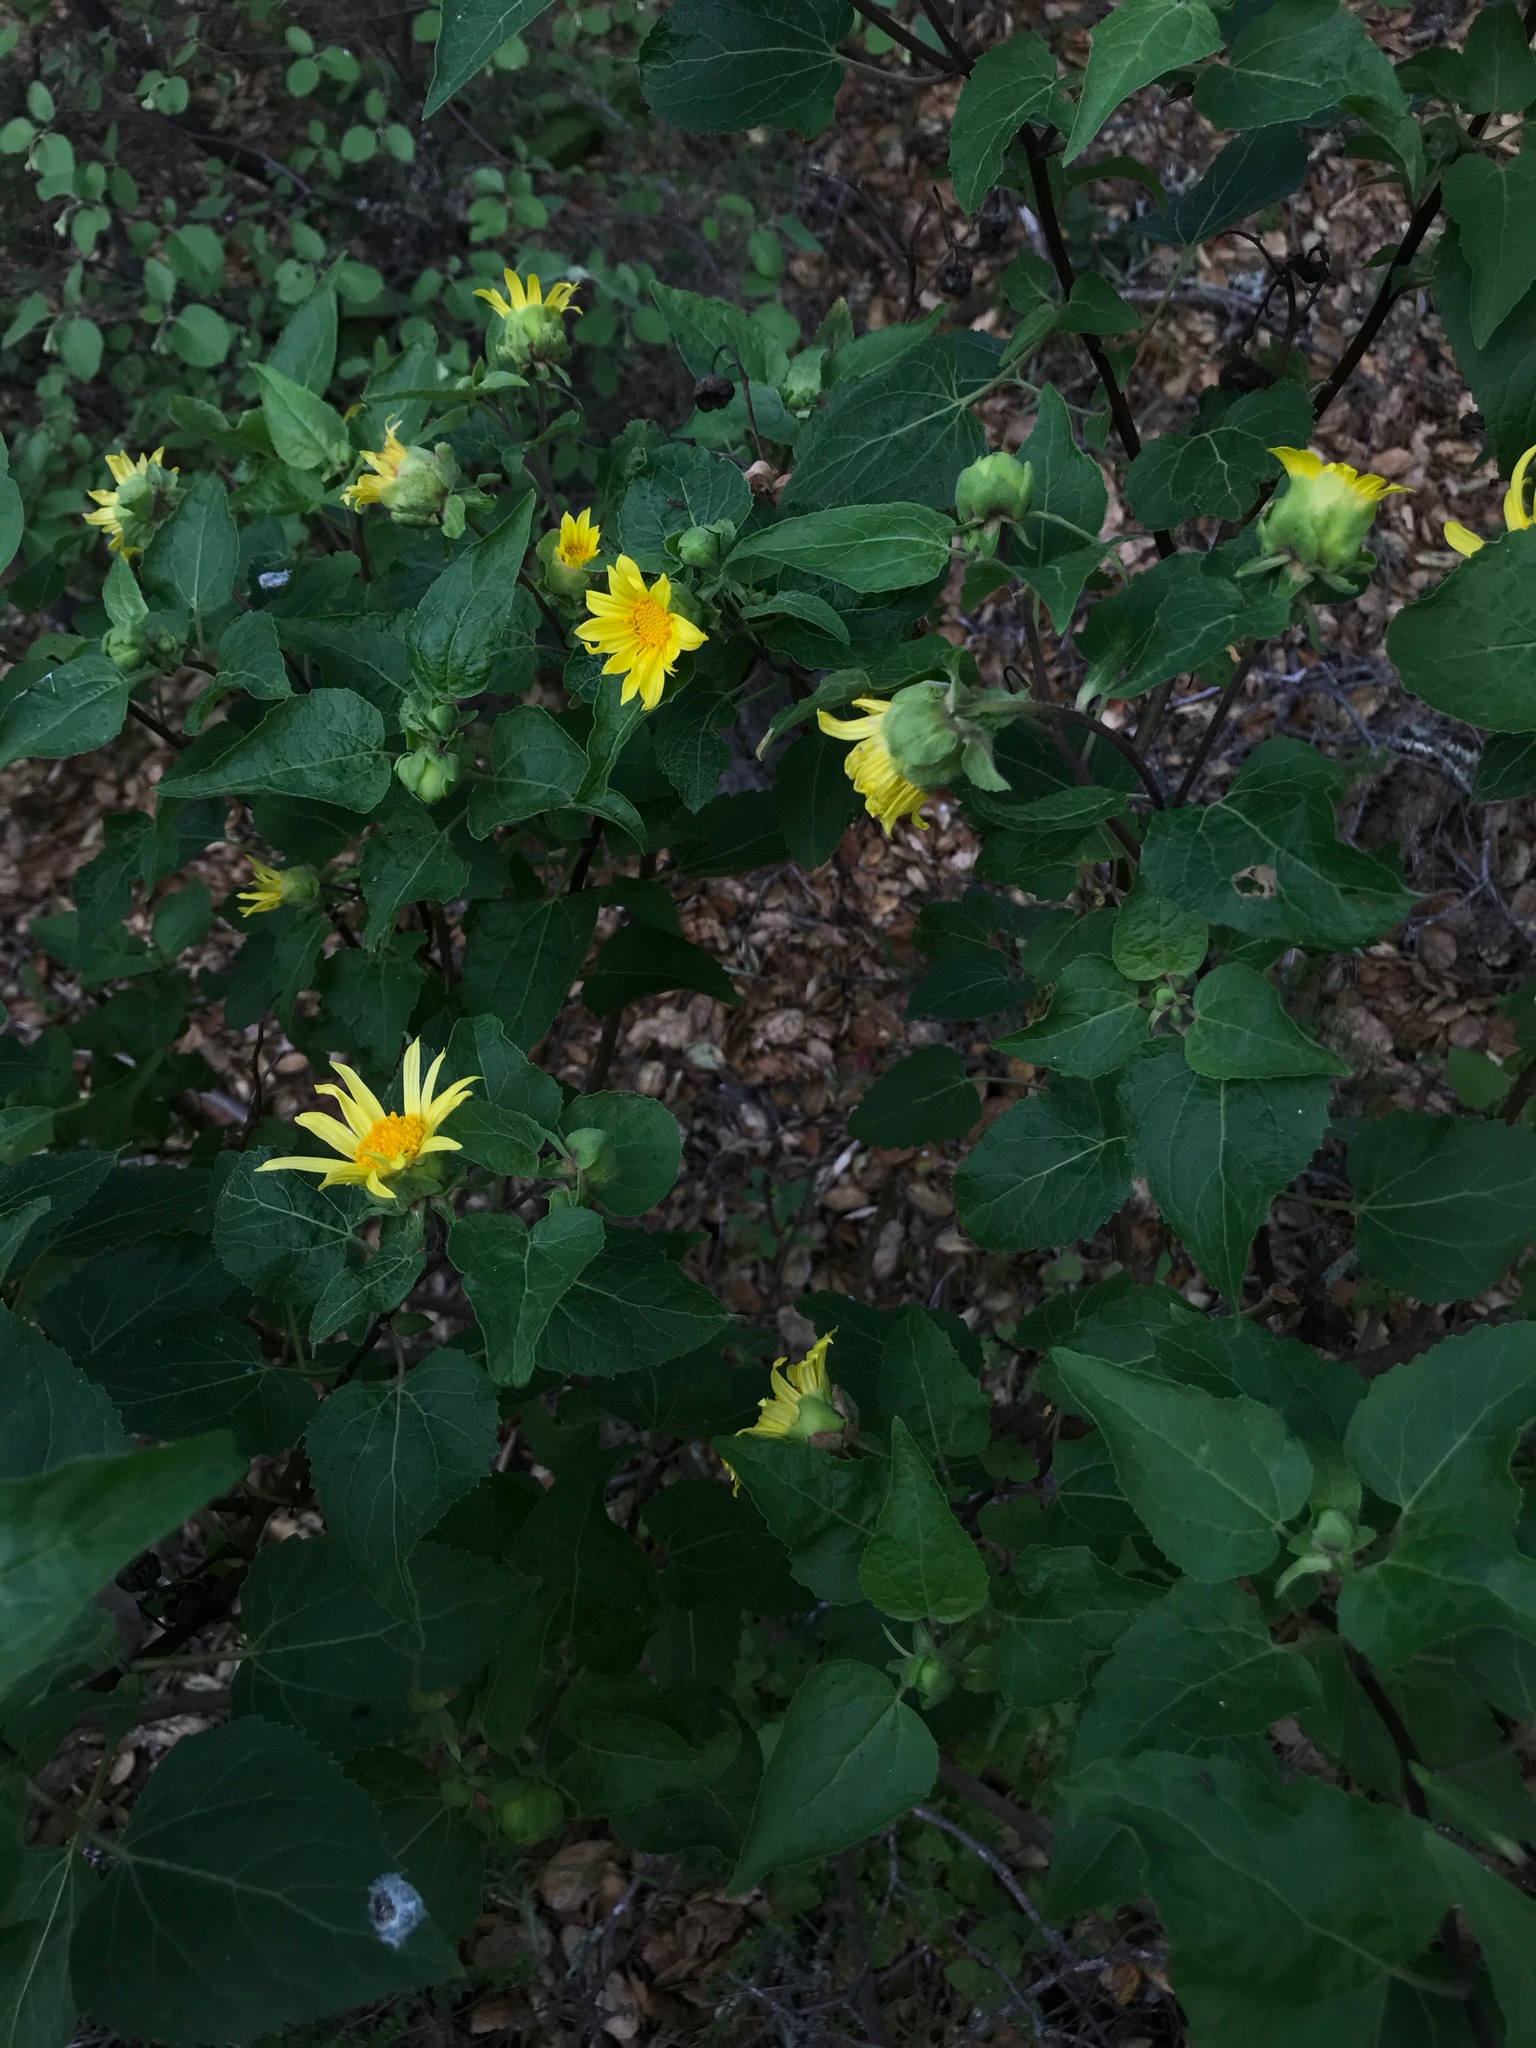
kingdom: Plantae
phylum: Tracheophyta
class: Magnoliopsida
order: Asterales
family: Asteraceae
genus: Venegasia
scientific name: Venegasia carpesioides
